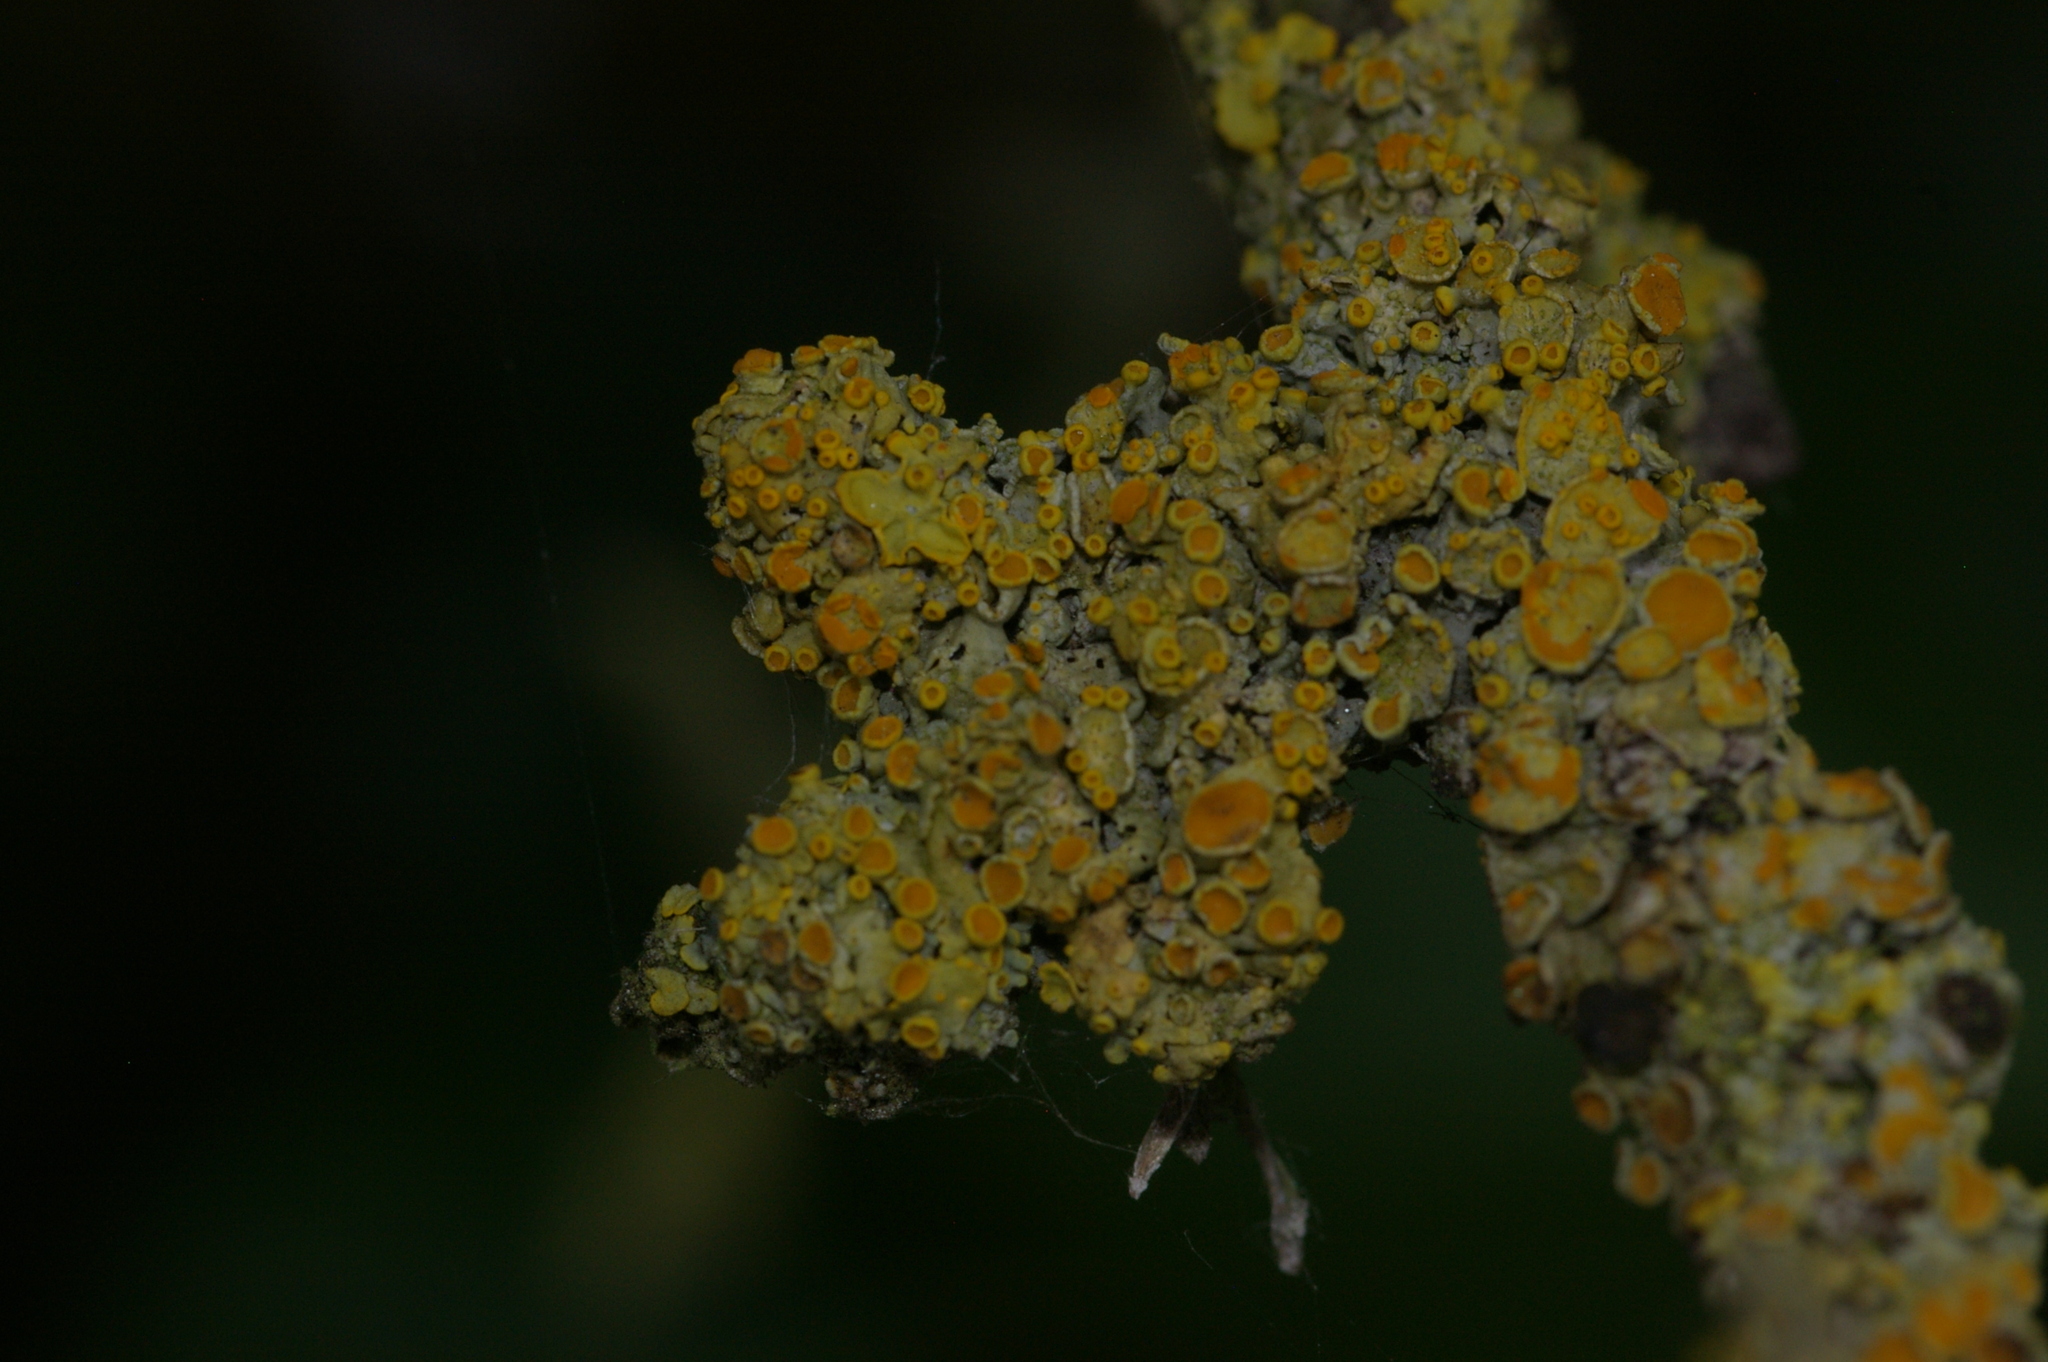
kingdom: Fungi
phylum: Ascomycota
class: Lecanoromycetes
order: Teloschistales
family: Teloschistaceae
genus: Xanthoria
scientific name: Xanthoria parietina
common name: Common orange lichen
